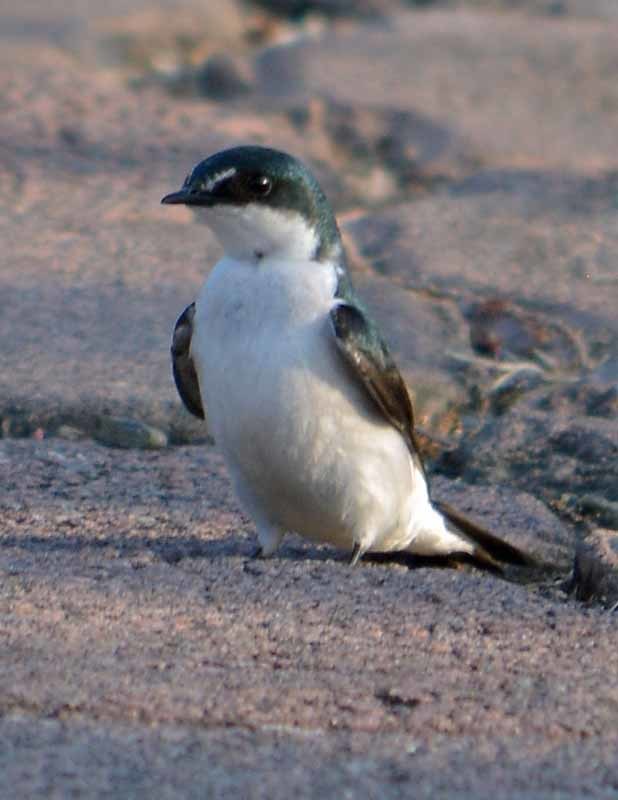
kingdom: Animalia
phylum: Chordata
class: Aves
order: Passeriformes
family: Hirundinidae
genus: Tachycineta
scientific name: Tachycineta albilinea
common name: Mangrove swallow
